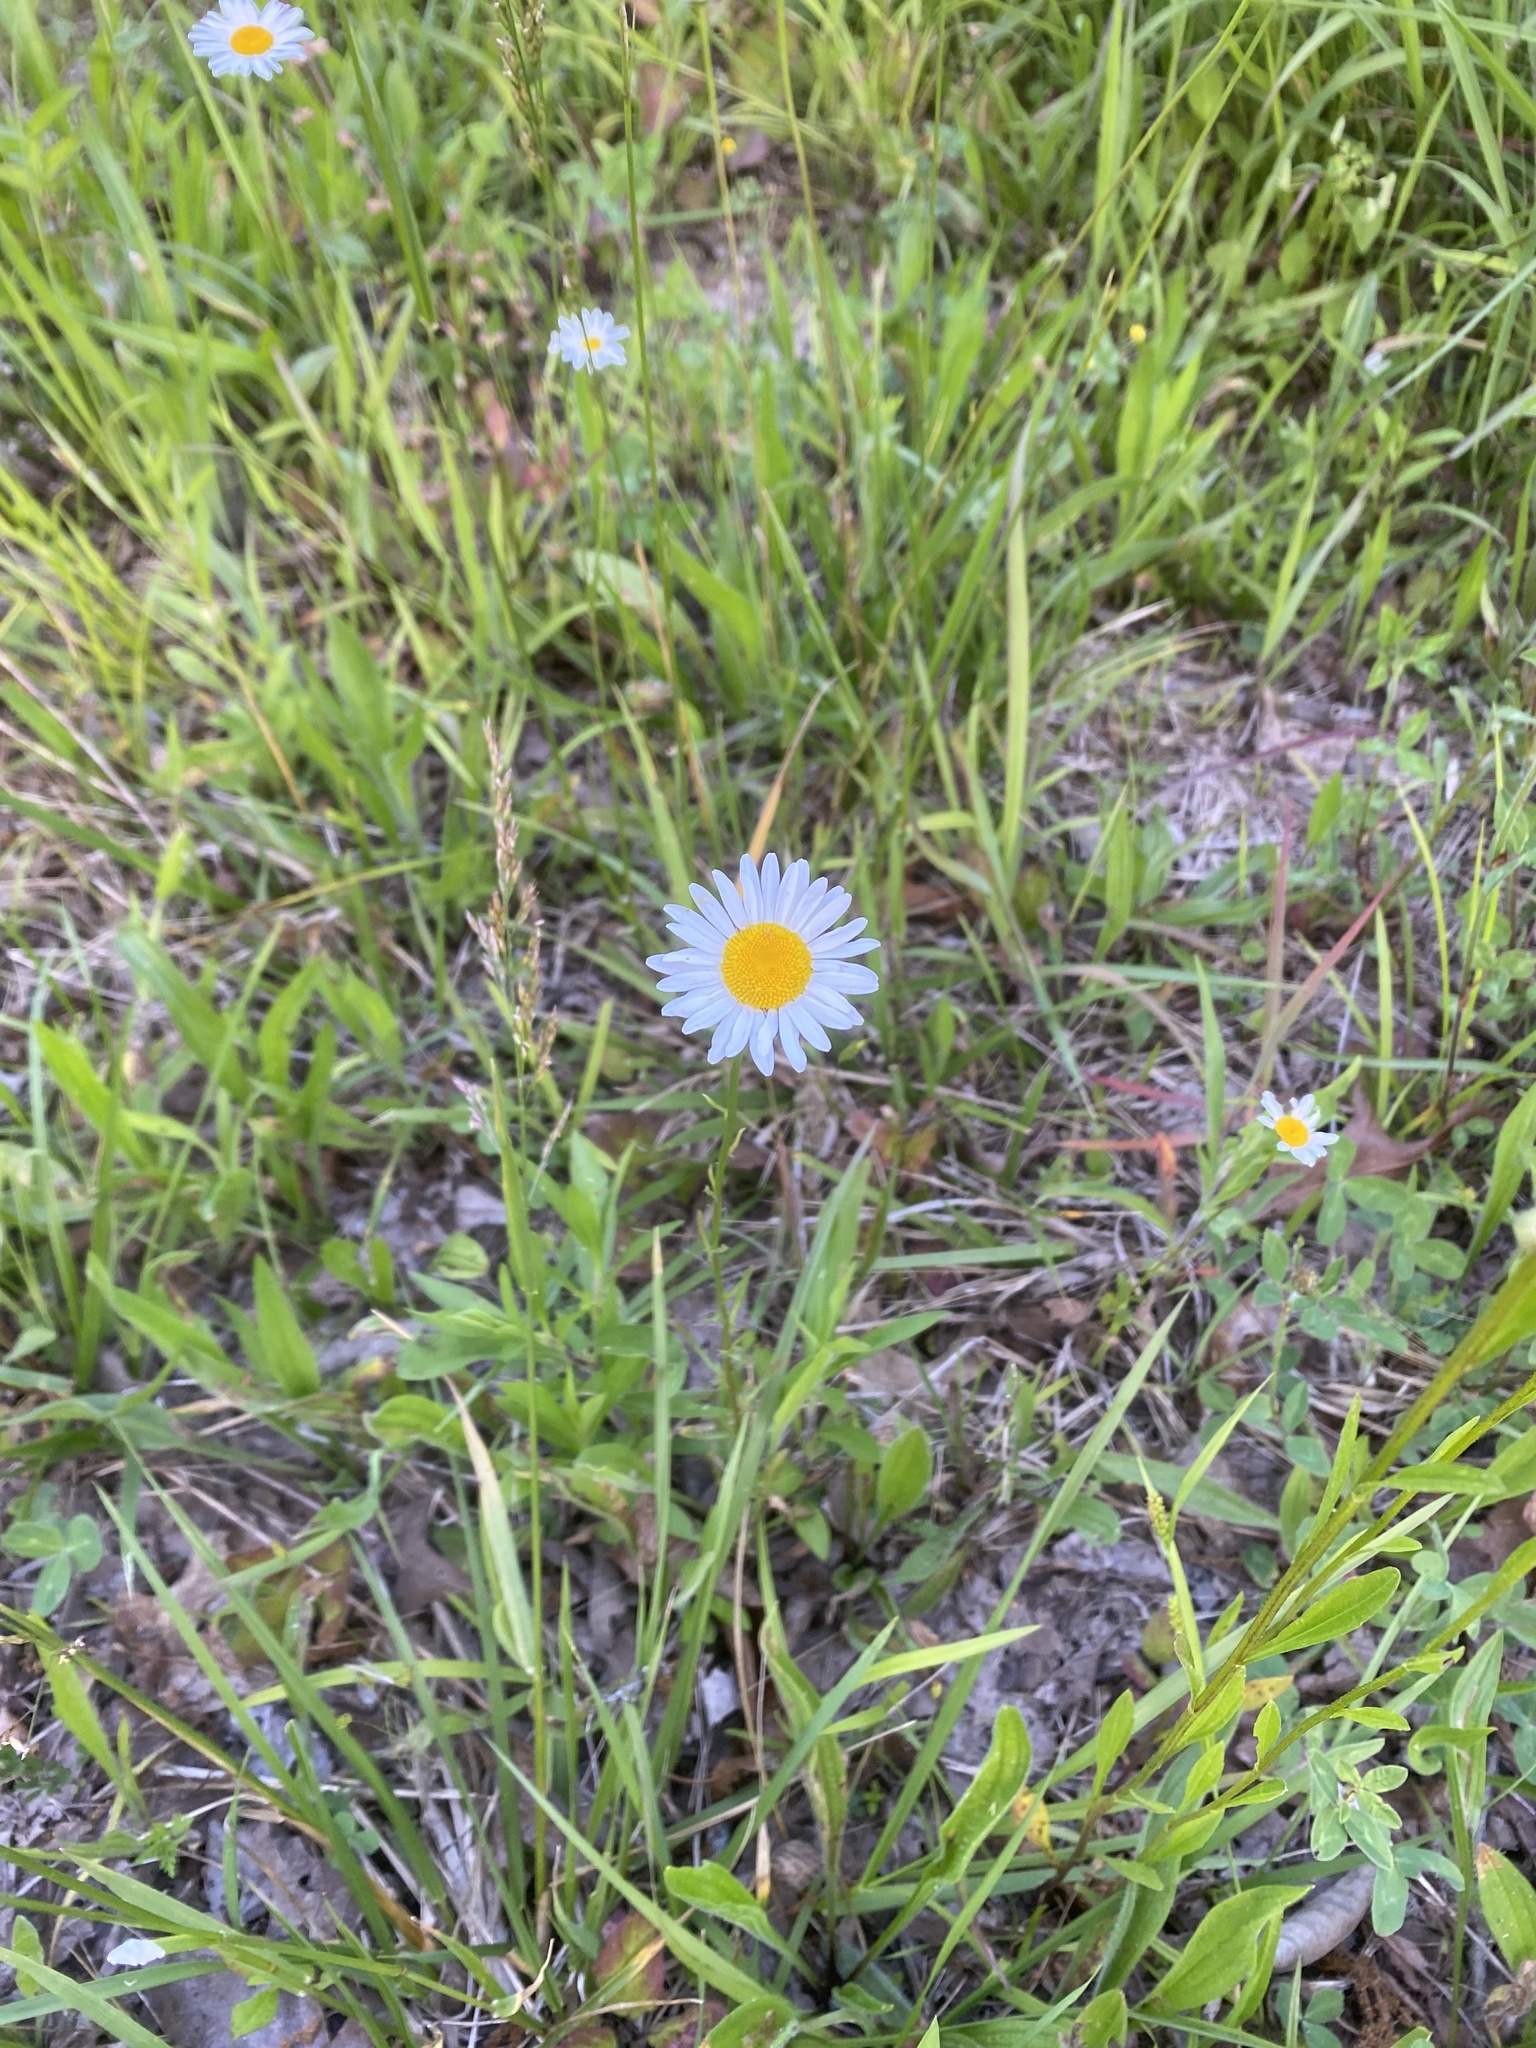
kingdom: Plantae
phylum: Tracheophyta
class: Magnoliopsida
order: Asterales
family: Asteraceae
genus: Leucanthemum
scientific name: Leucanthemum vulgare
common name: Oxeye daisy
